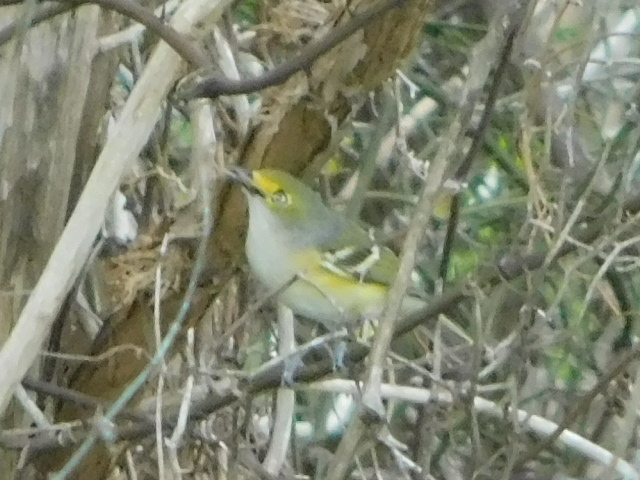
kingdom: Animalia
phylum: Chordata
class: Aves
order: Passeriformes
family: Vireonidae
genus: Vireo
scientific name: Vireo griseus
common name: White-eyed vireo
